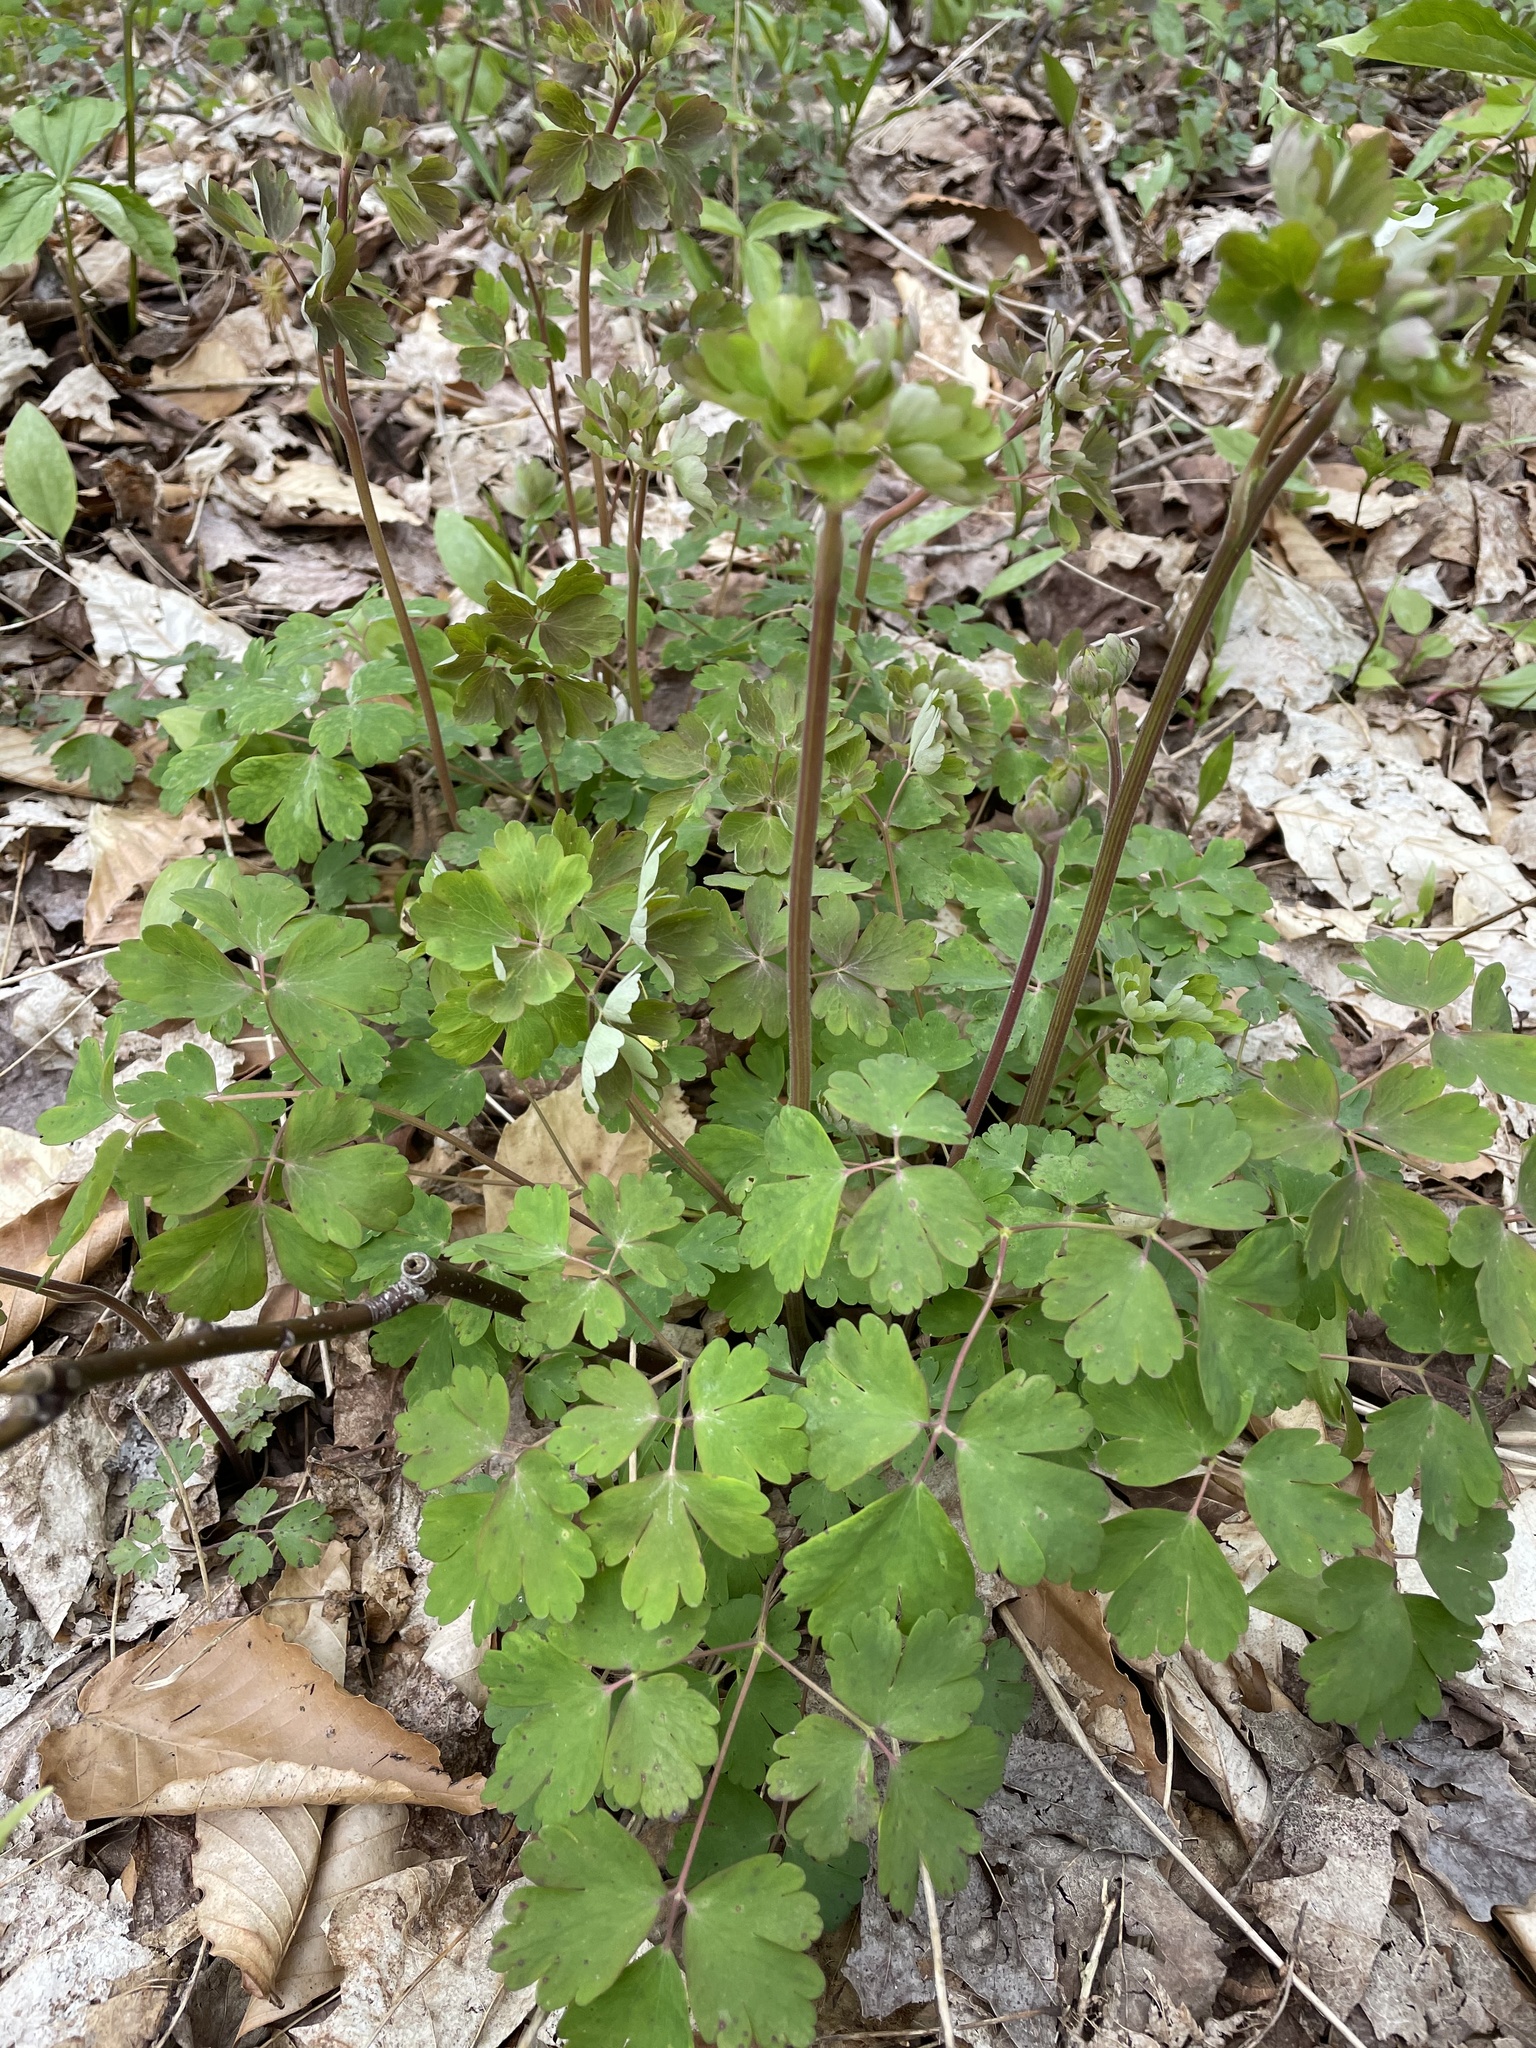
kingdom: Plantae
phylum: Tracheophyta
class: Magnoliopsida
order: Ranunculales
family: Ranunculaceae
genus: Aquilegia
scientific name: Aquilegia canadensis
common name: American columbine
